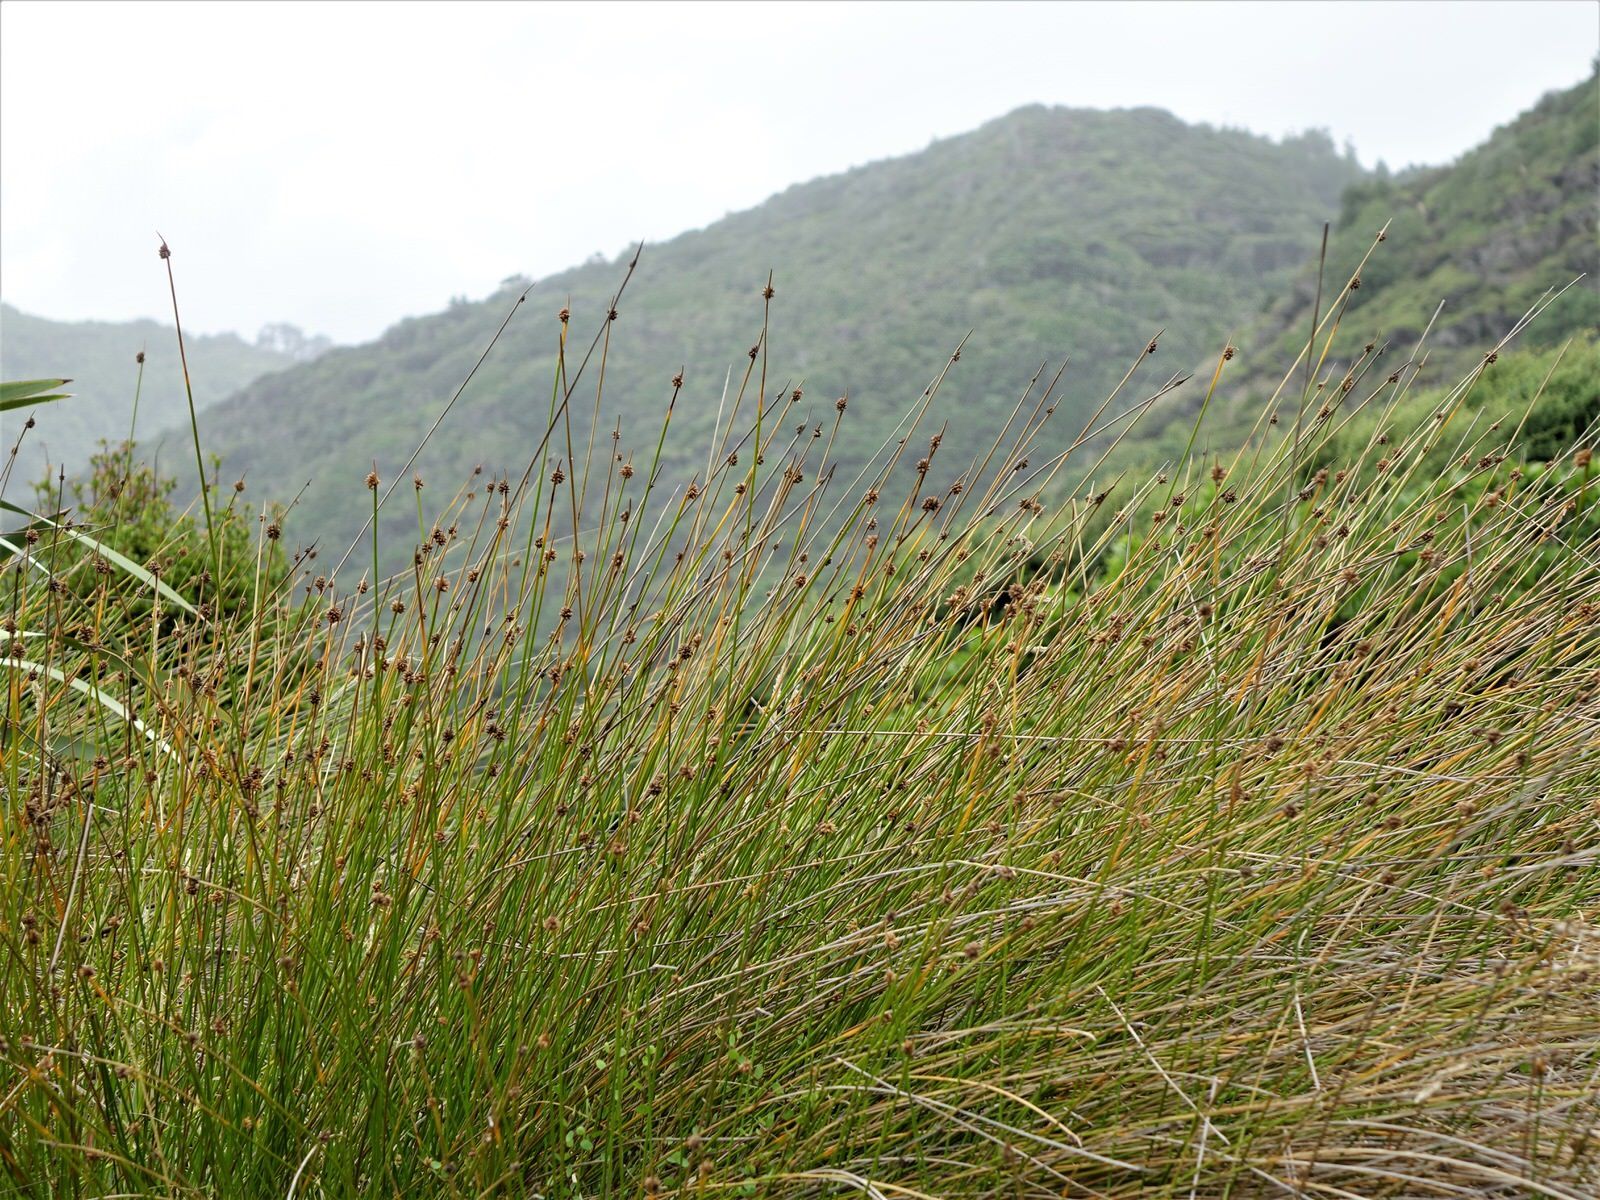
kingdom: Plantae
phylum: Tracheophyta
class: Liliopsida
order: Poales
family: Cyperaceae
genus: Ficinia
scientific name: Ficinia nodosa
